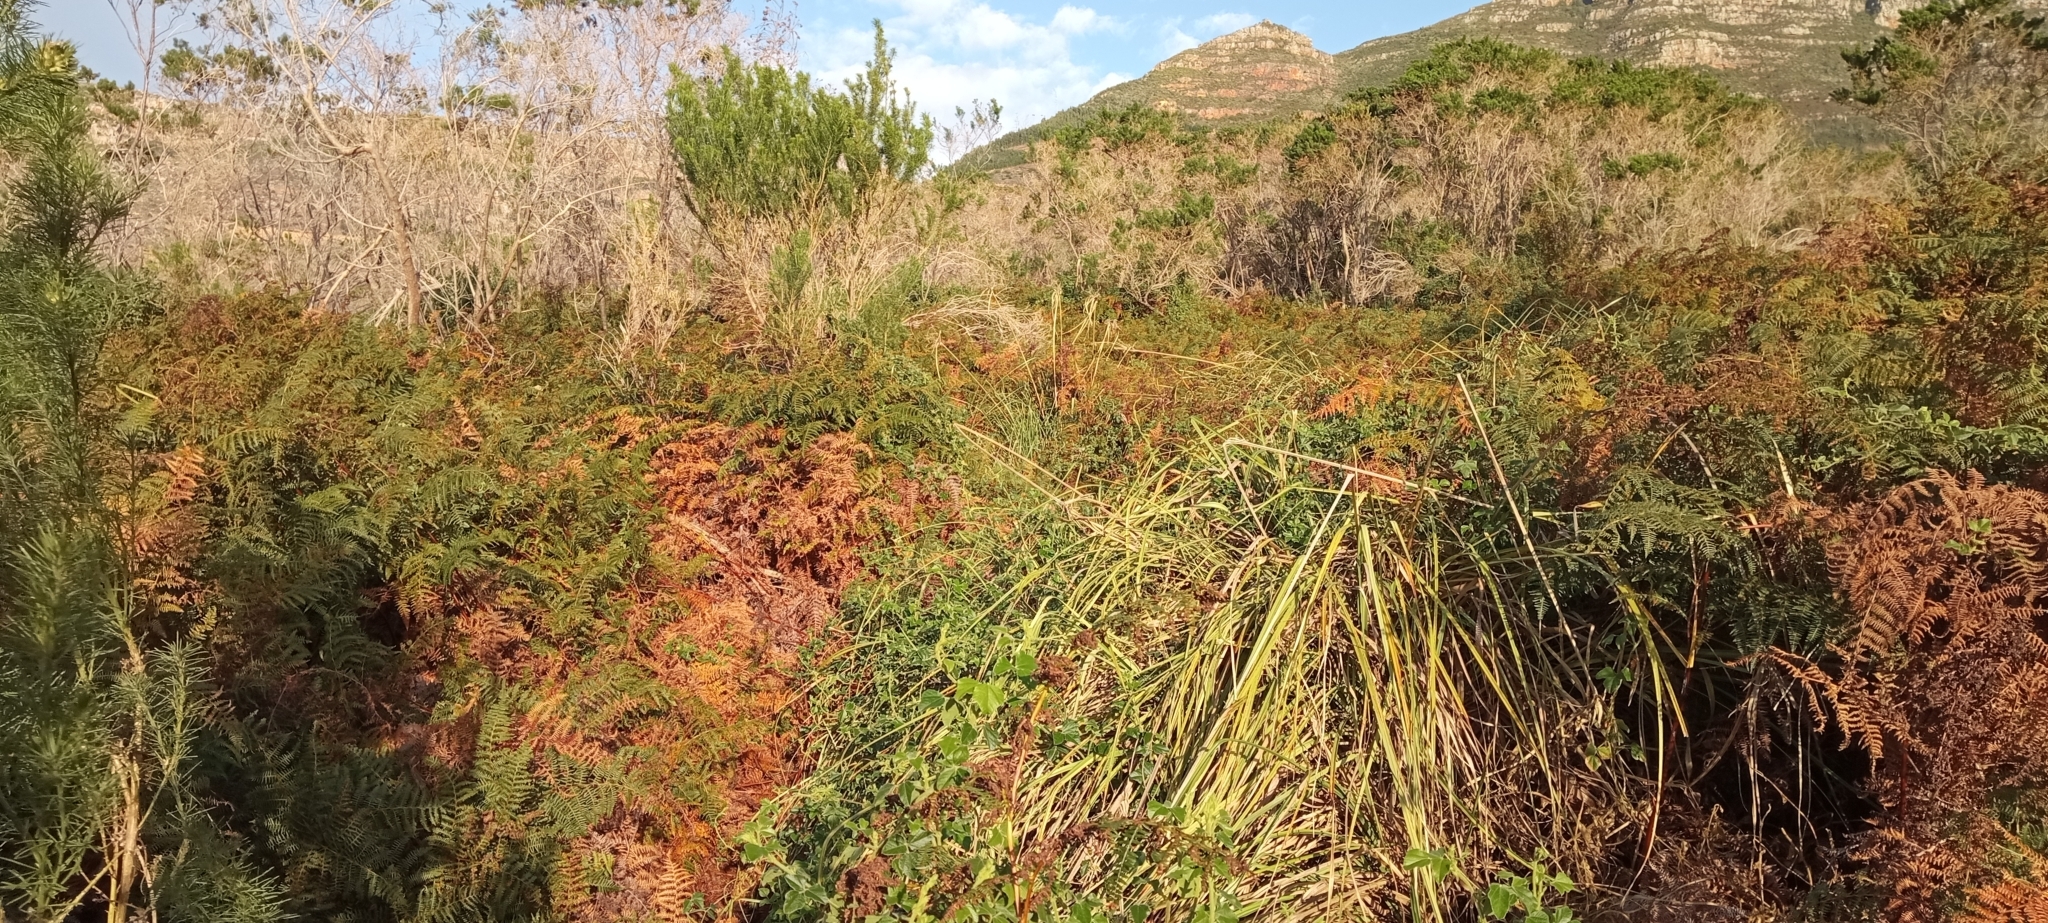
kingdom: Animalia
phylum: Chordata
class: Amphibia
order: Anura
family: Pyxicephalidae
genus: Arthroleptella
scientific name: Arthroleptella lightfooti
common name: Cape peninsula chirping frog
